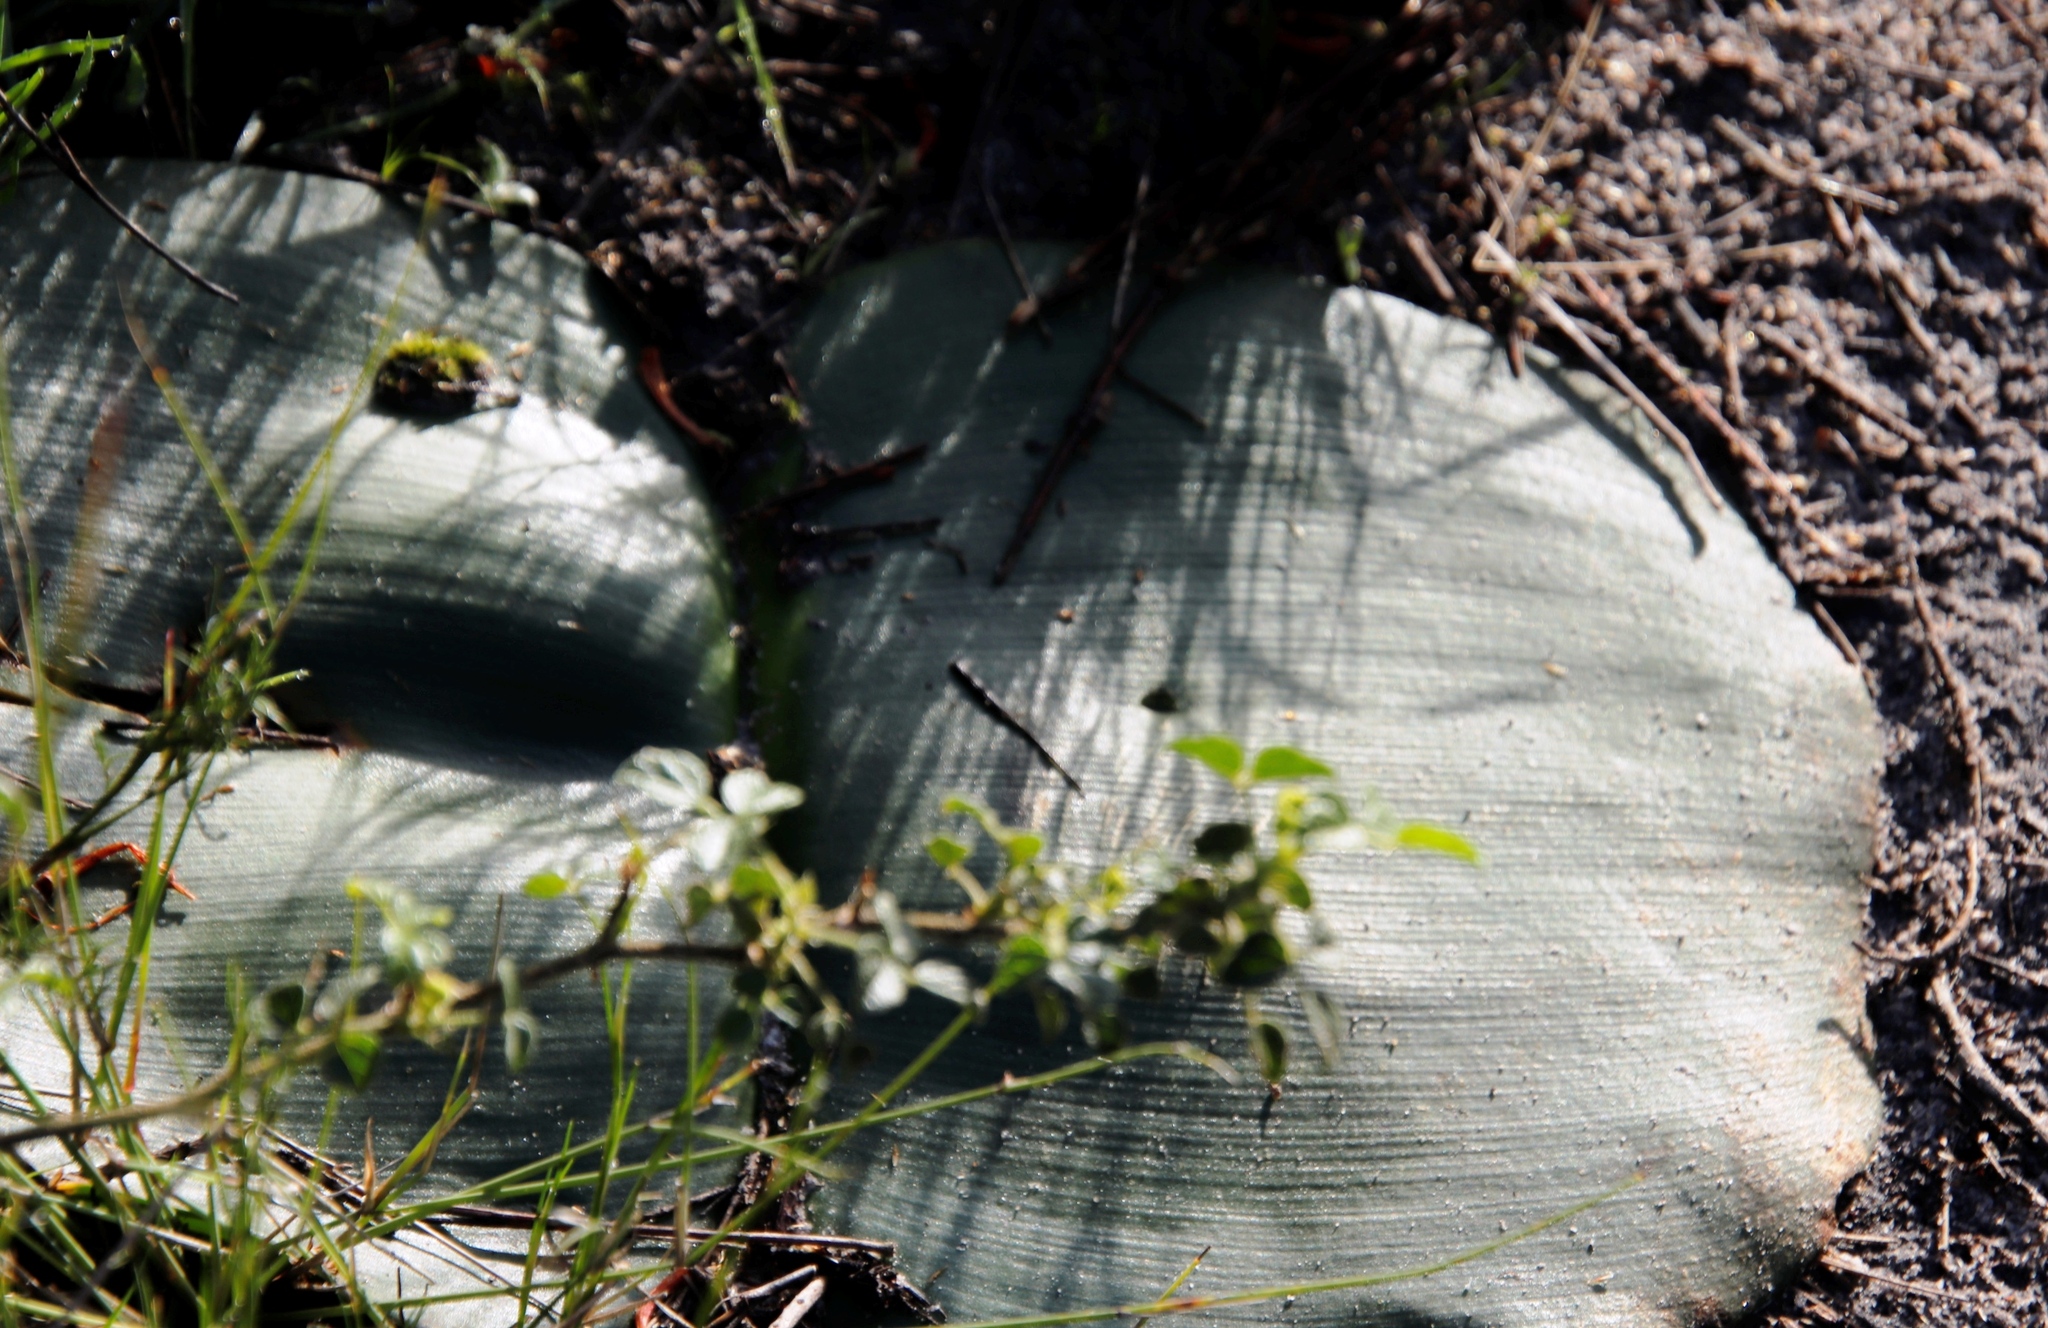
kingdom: Plantae
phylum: Tracheophyta
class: Liliopsida
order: Asparagales
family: Amaryllidaceae
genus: Haemanthus
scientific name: Haemanthus sanguineus
